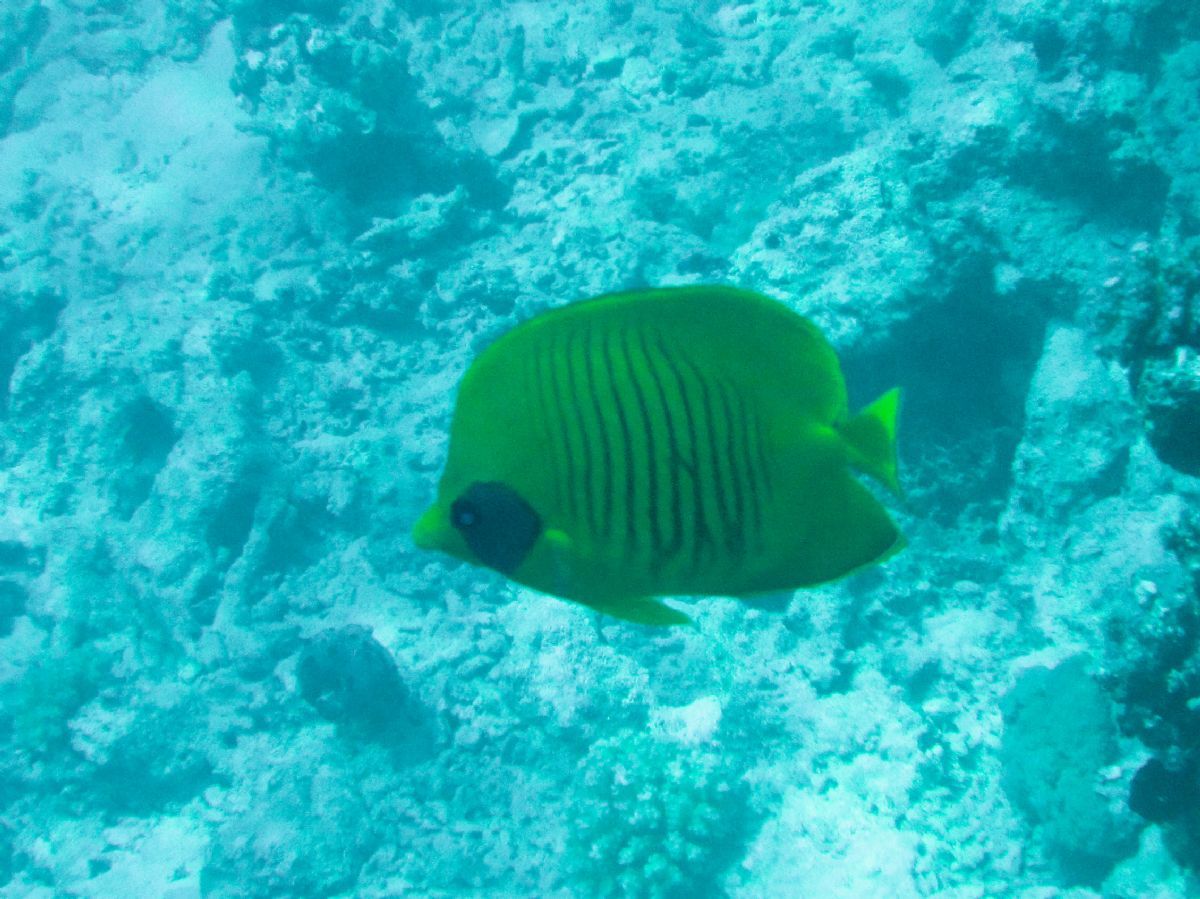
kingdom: Animalia
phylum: Chordata
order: Perciformes
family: Chaetodontidae
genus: Chaetodon
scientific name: Chaetodon semilarvatus
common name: Golden butterflyfish
